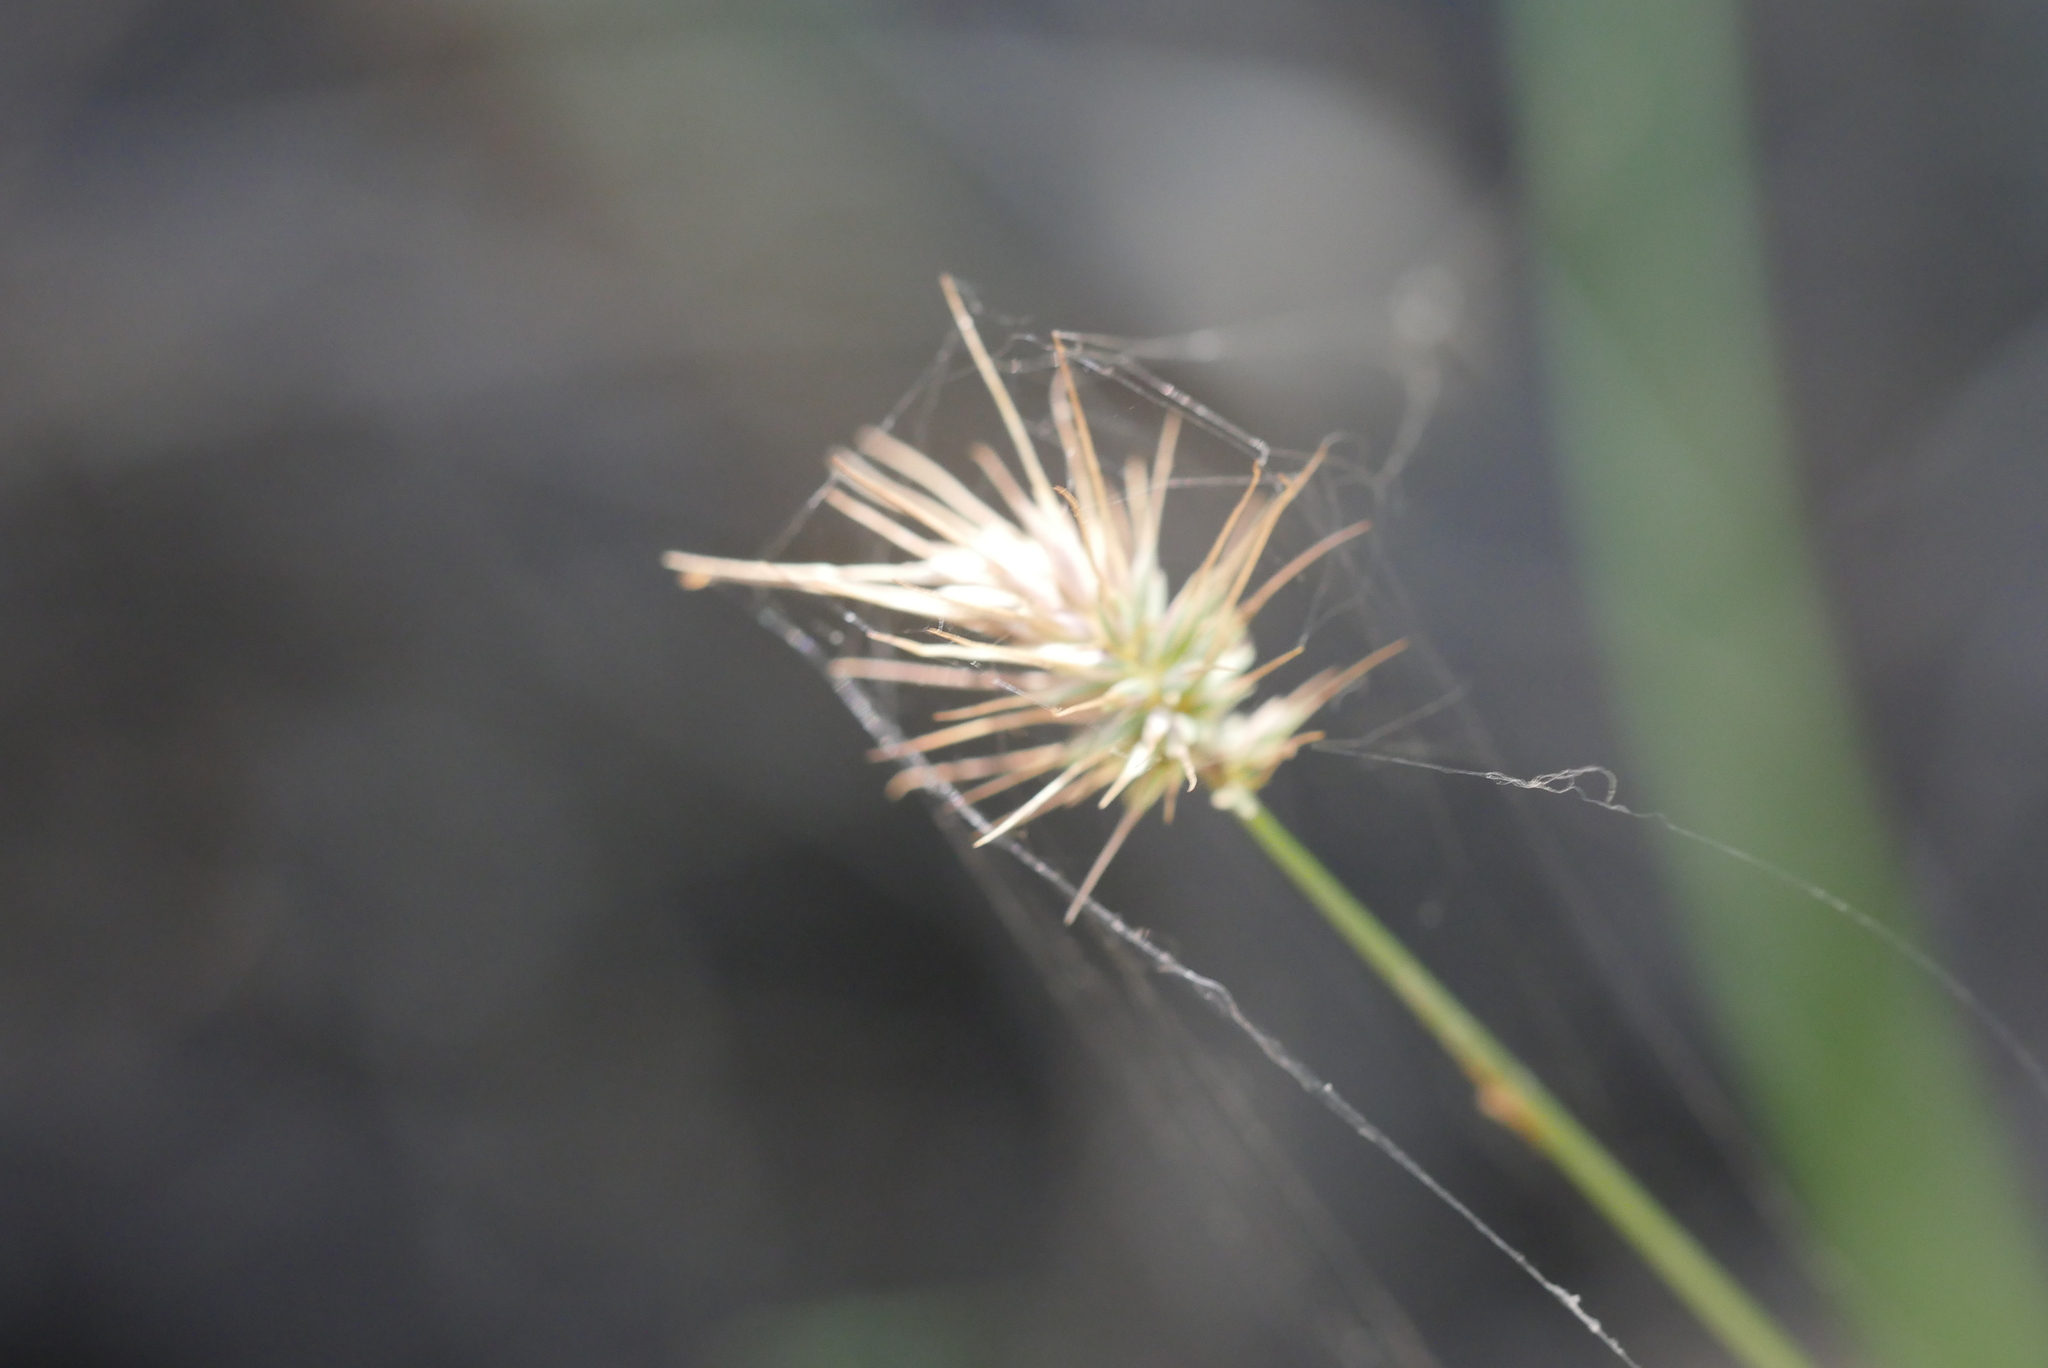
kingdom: Plantae
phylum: Tracheophyta
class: Liliopsida
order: Poales
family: Poaceae
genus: Echinopogon
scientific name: Echinopogon ovatus
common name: Hedgehog-grass
